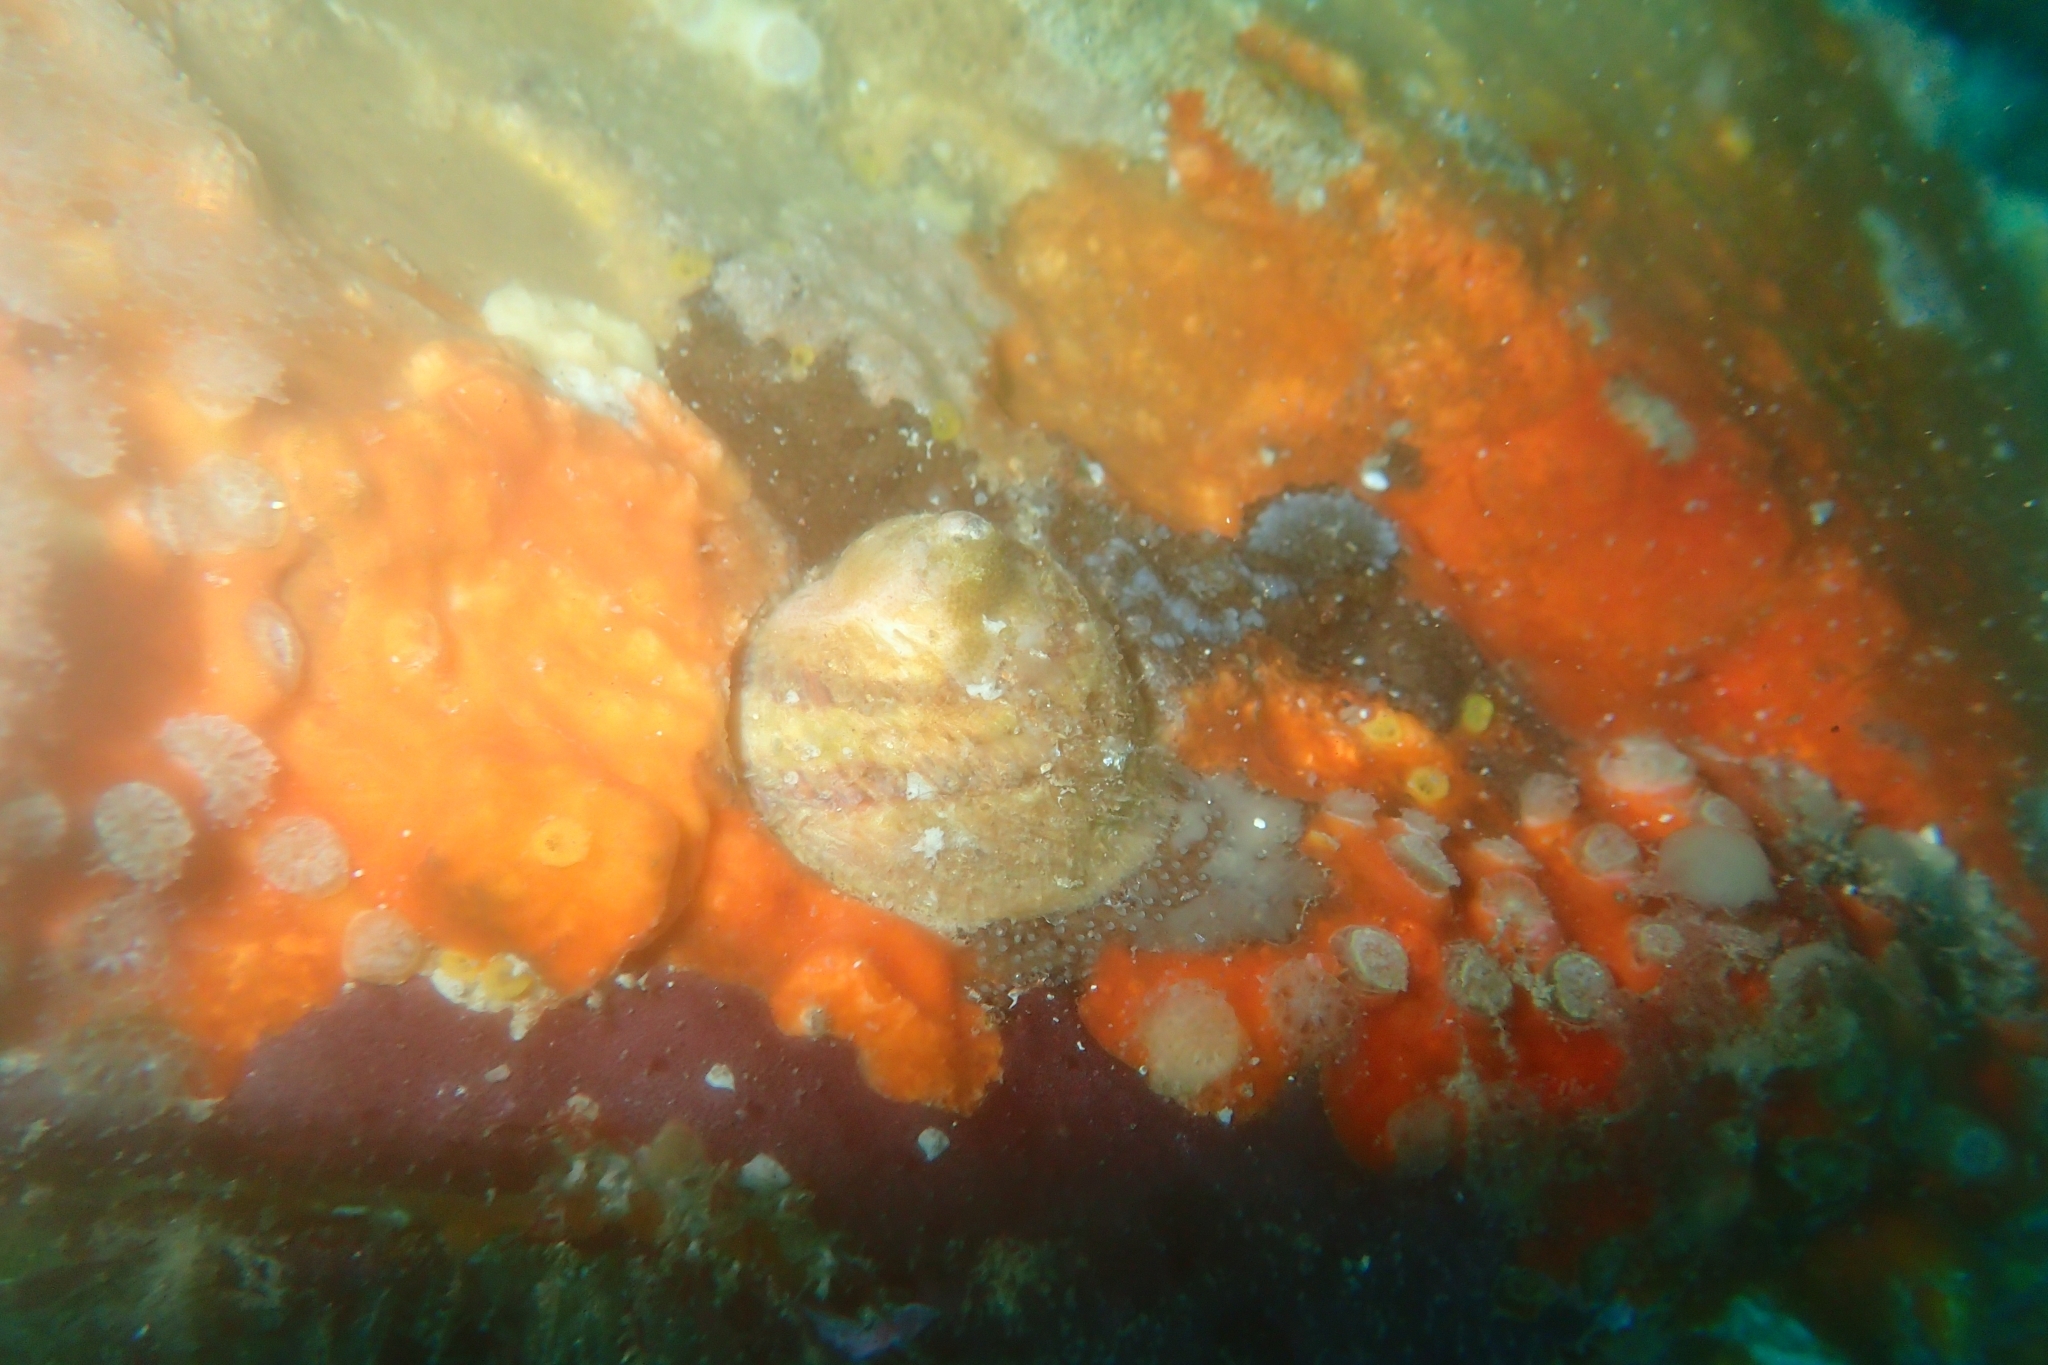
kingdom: Animalia
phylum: Mollusca
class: Gastropoda
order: Littorinimorpha
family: Calyptraeidae
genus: Sigapatella
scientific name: Sigapatella novaezelandiae
